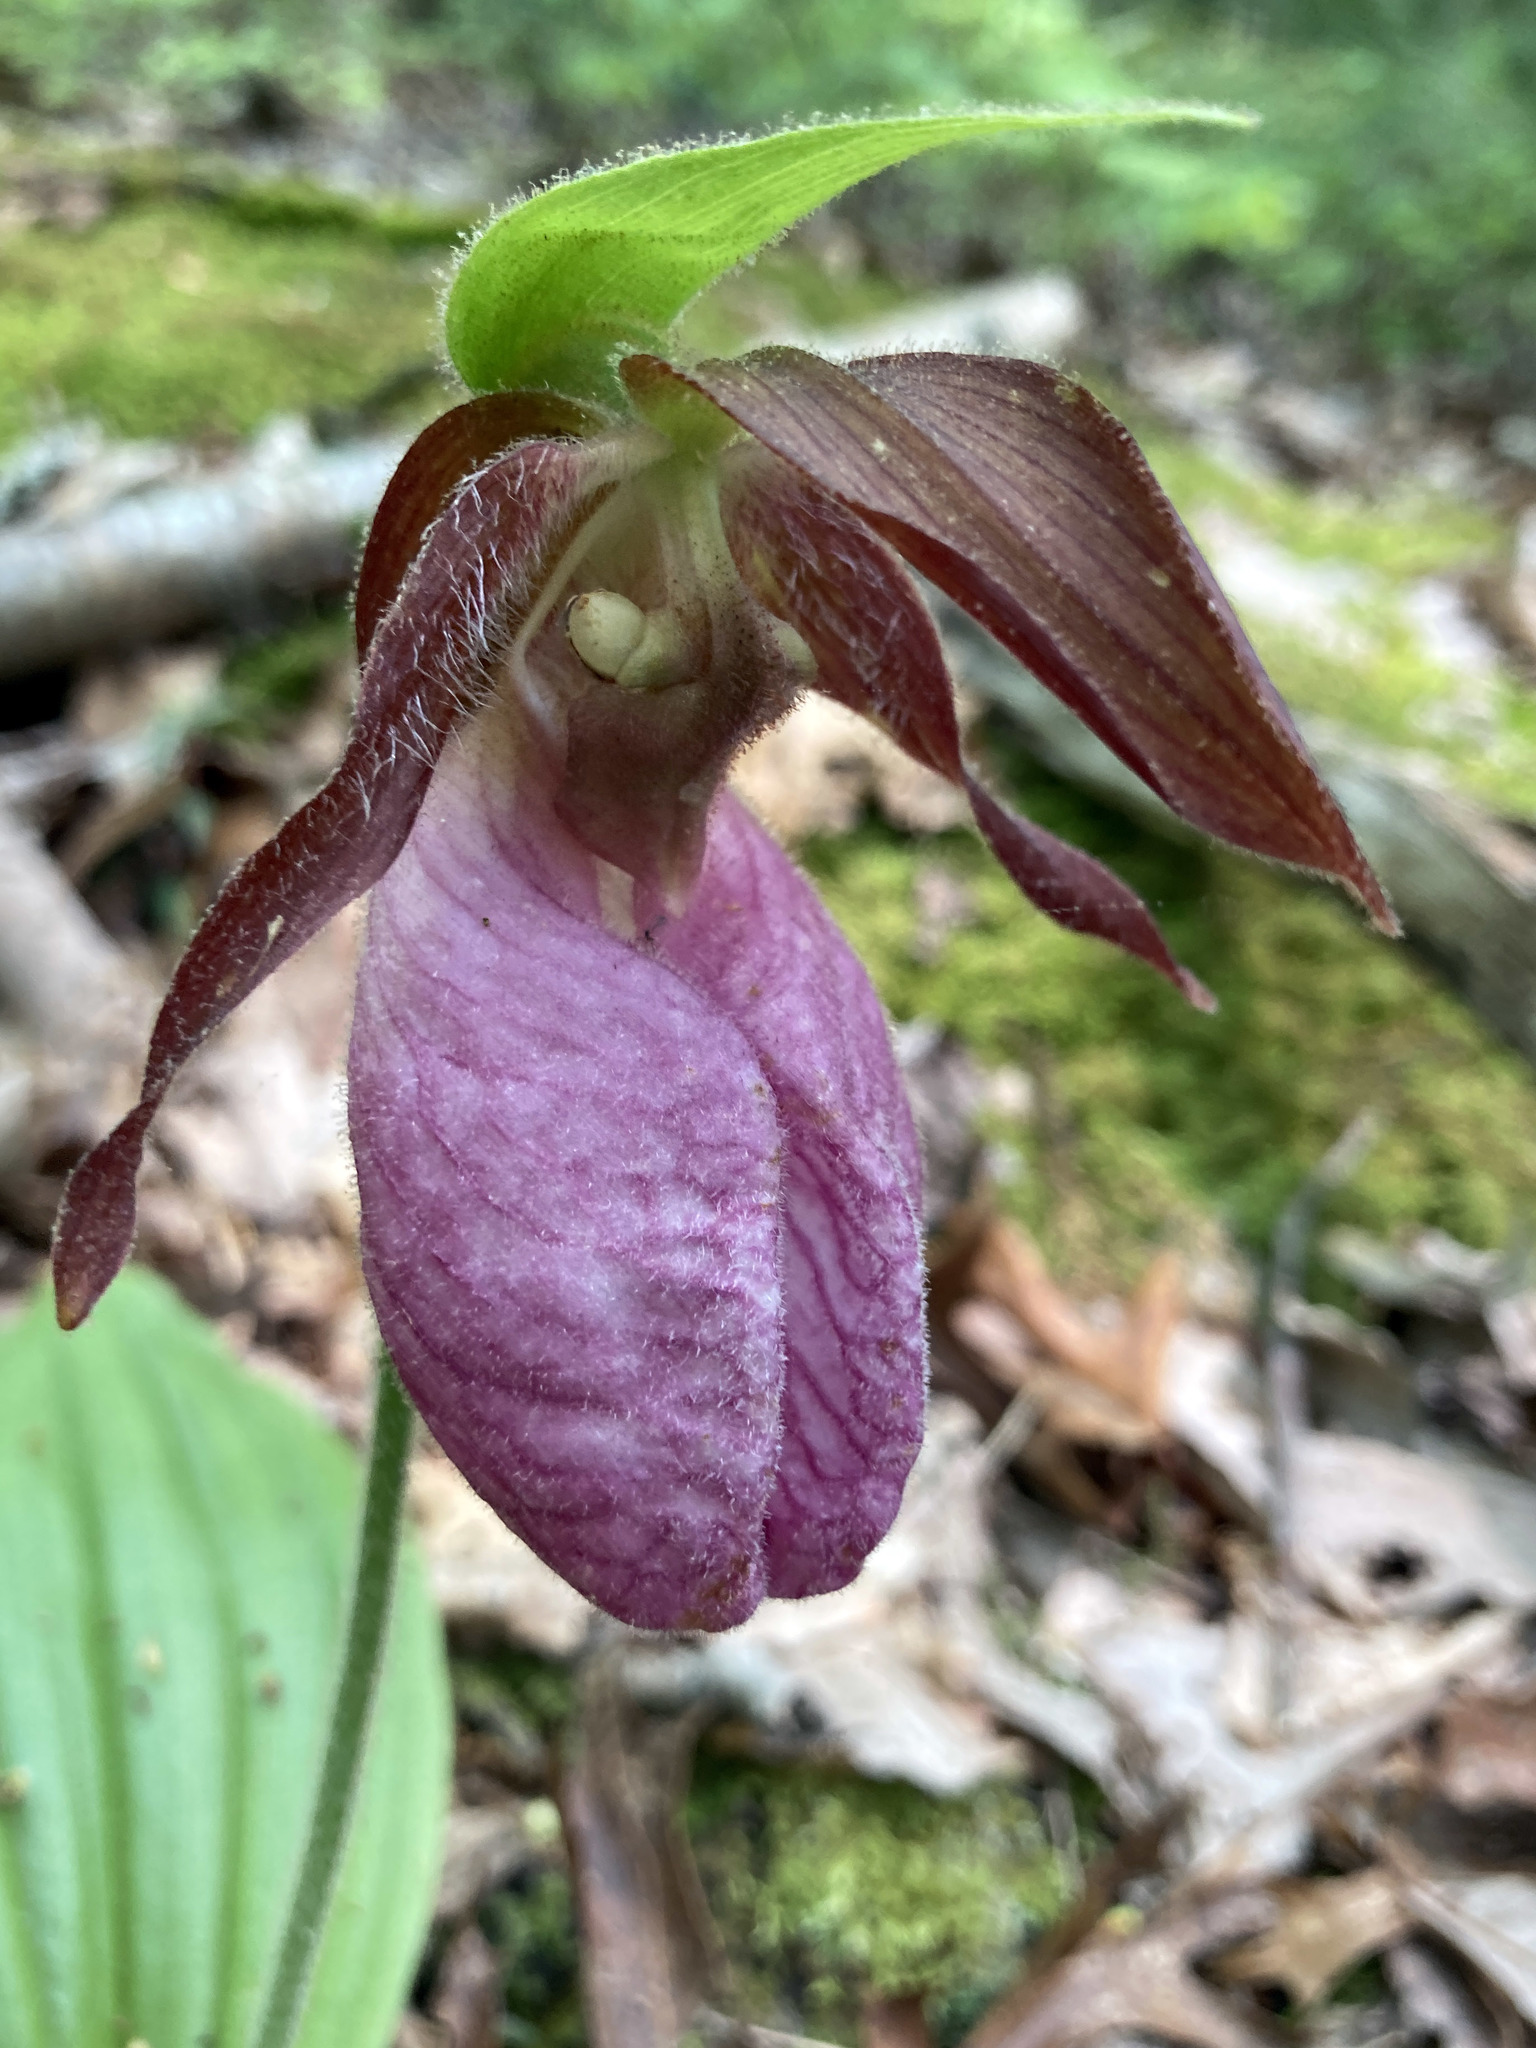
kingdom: Plantae
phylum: Tracheophyta
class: Liliopsida
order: Asparagales
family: Orchidaceae
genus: Cypripedium
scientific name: Cypripedium acaule
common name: Pink lady's-slipper
